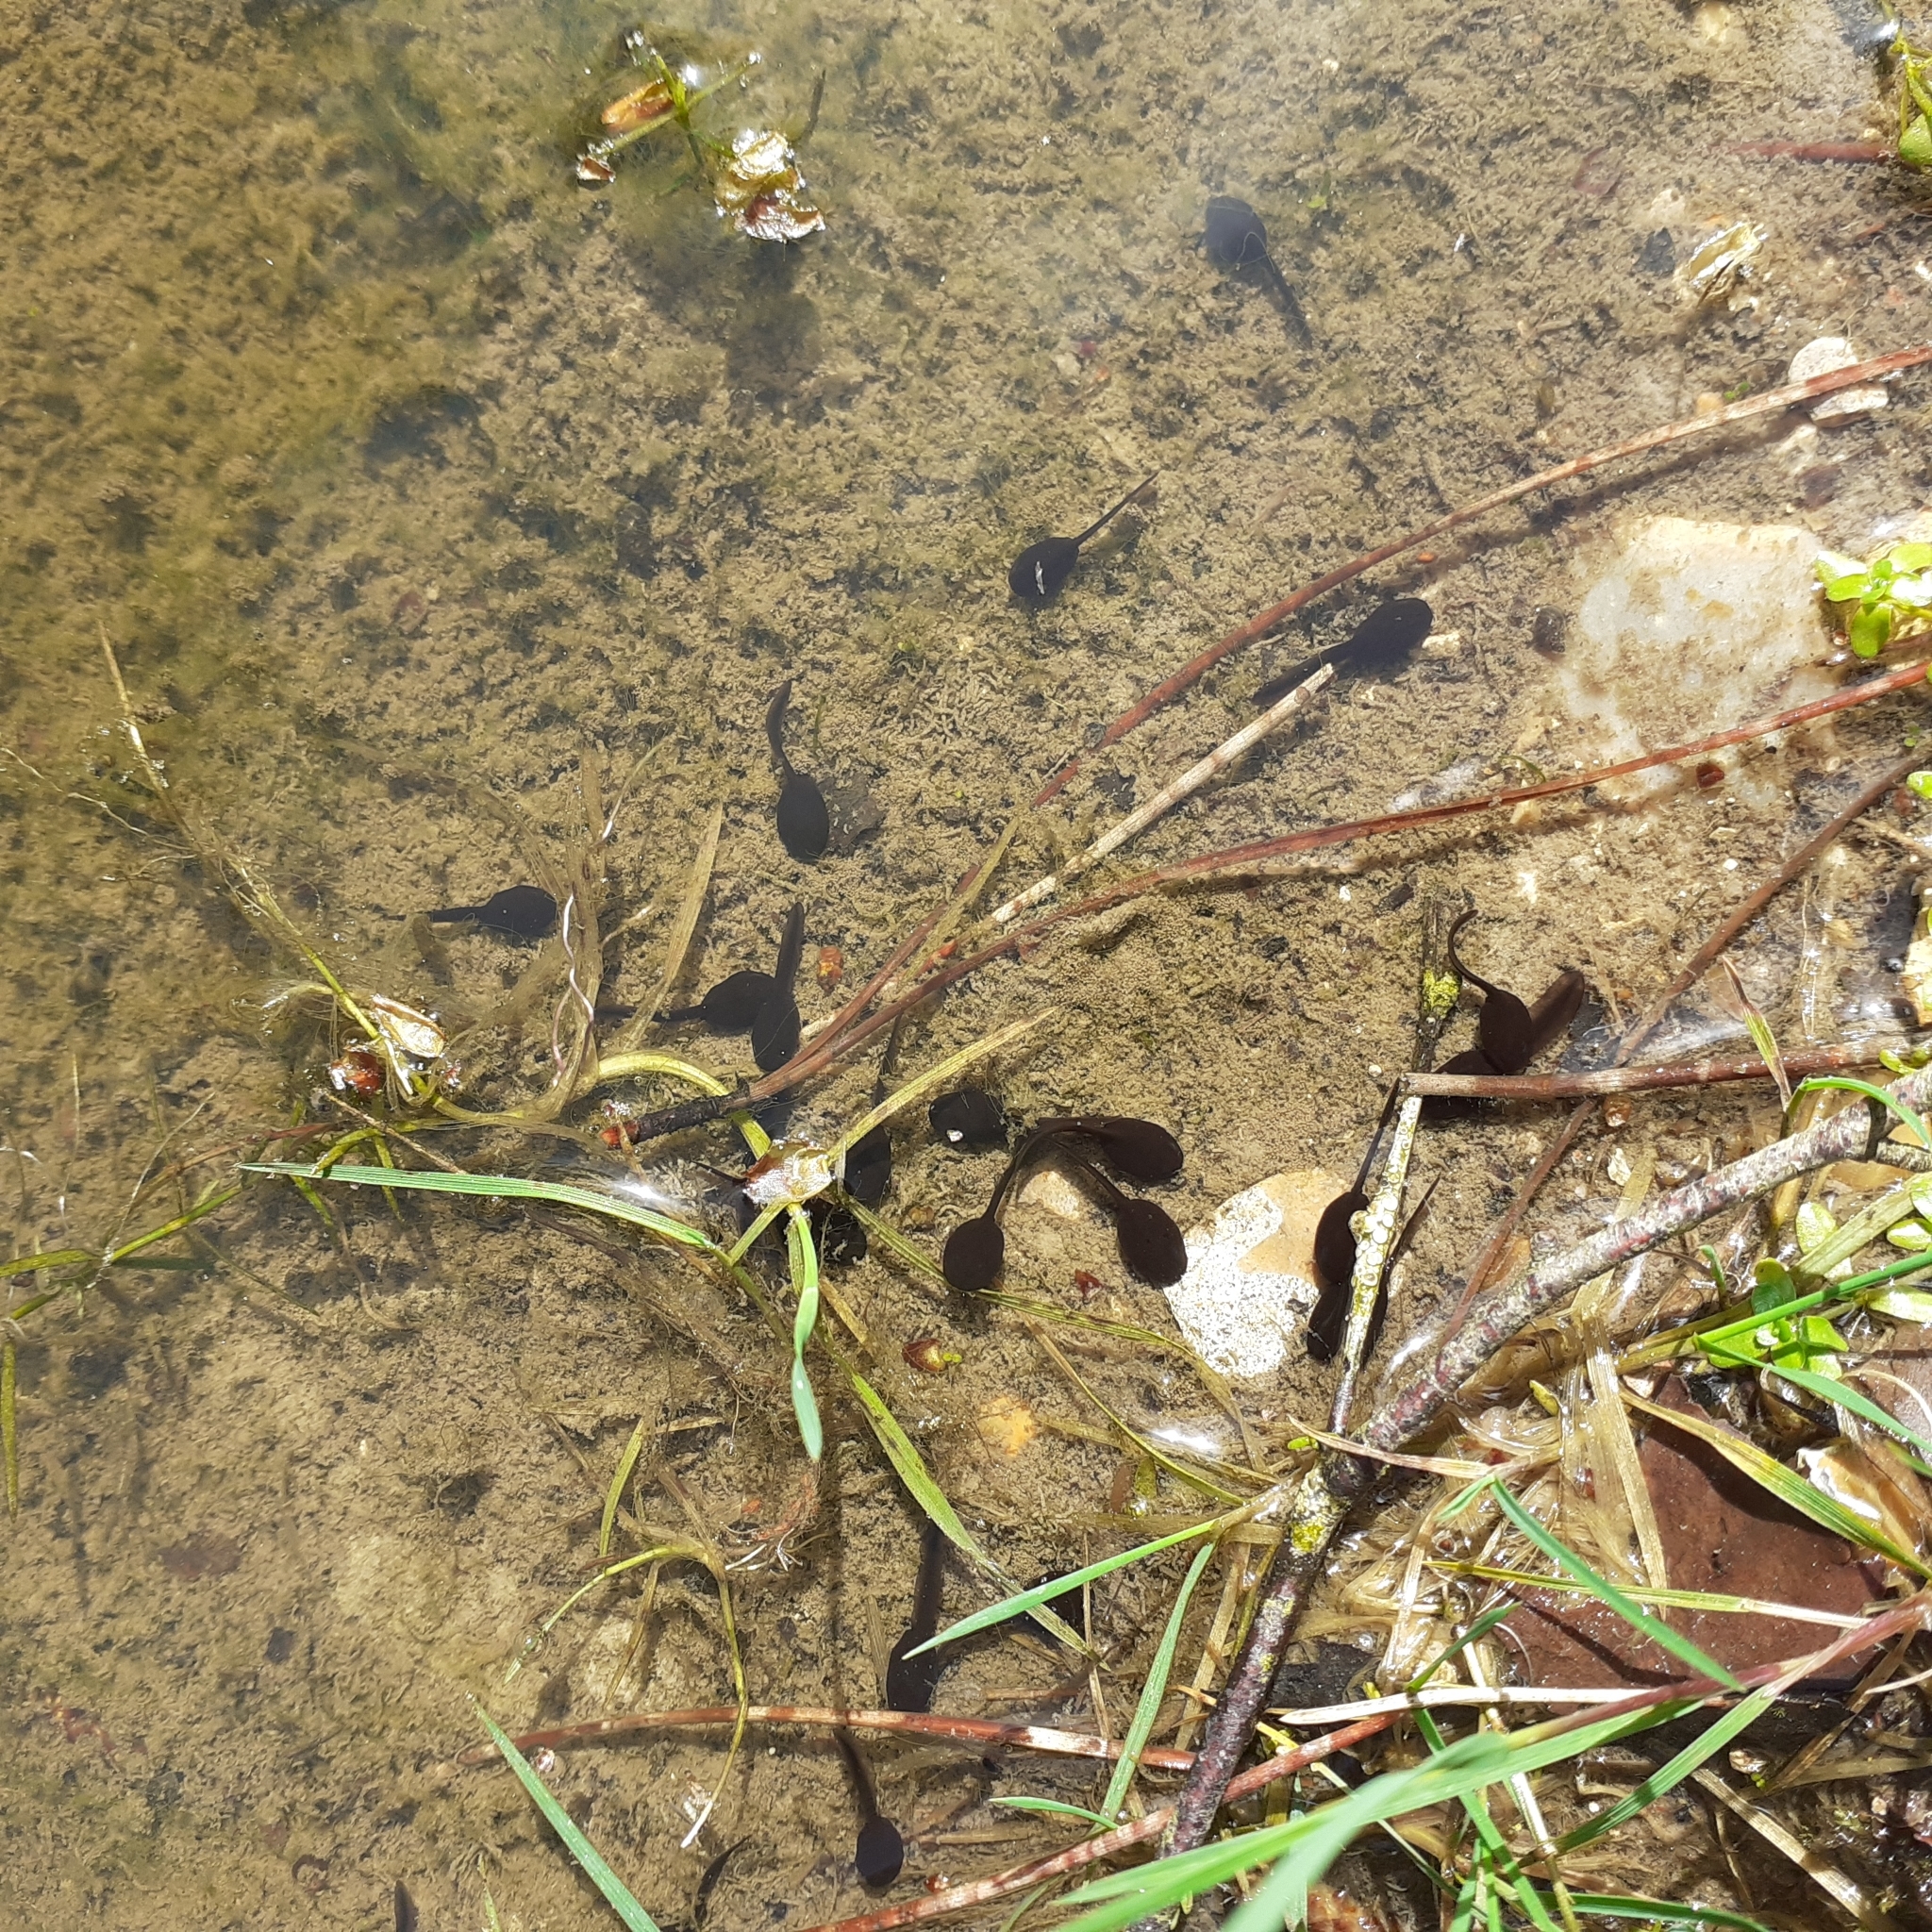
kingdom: Animalia
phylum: Chordata
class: Amphibia
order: Anura
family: Bufonidae
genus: Bufo
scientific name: Bufo bufo
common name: Common toad
